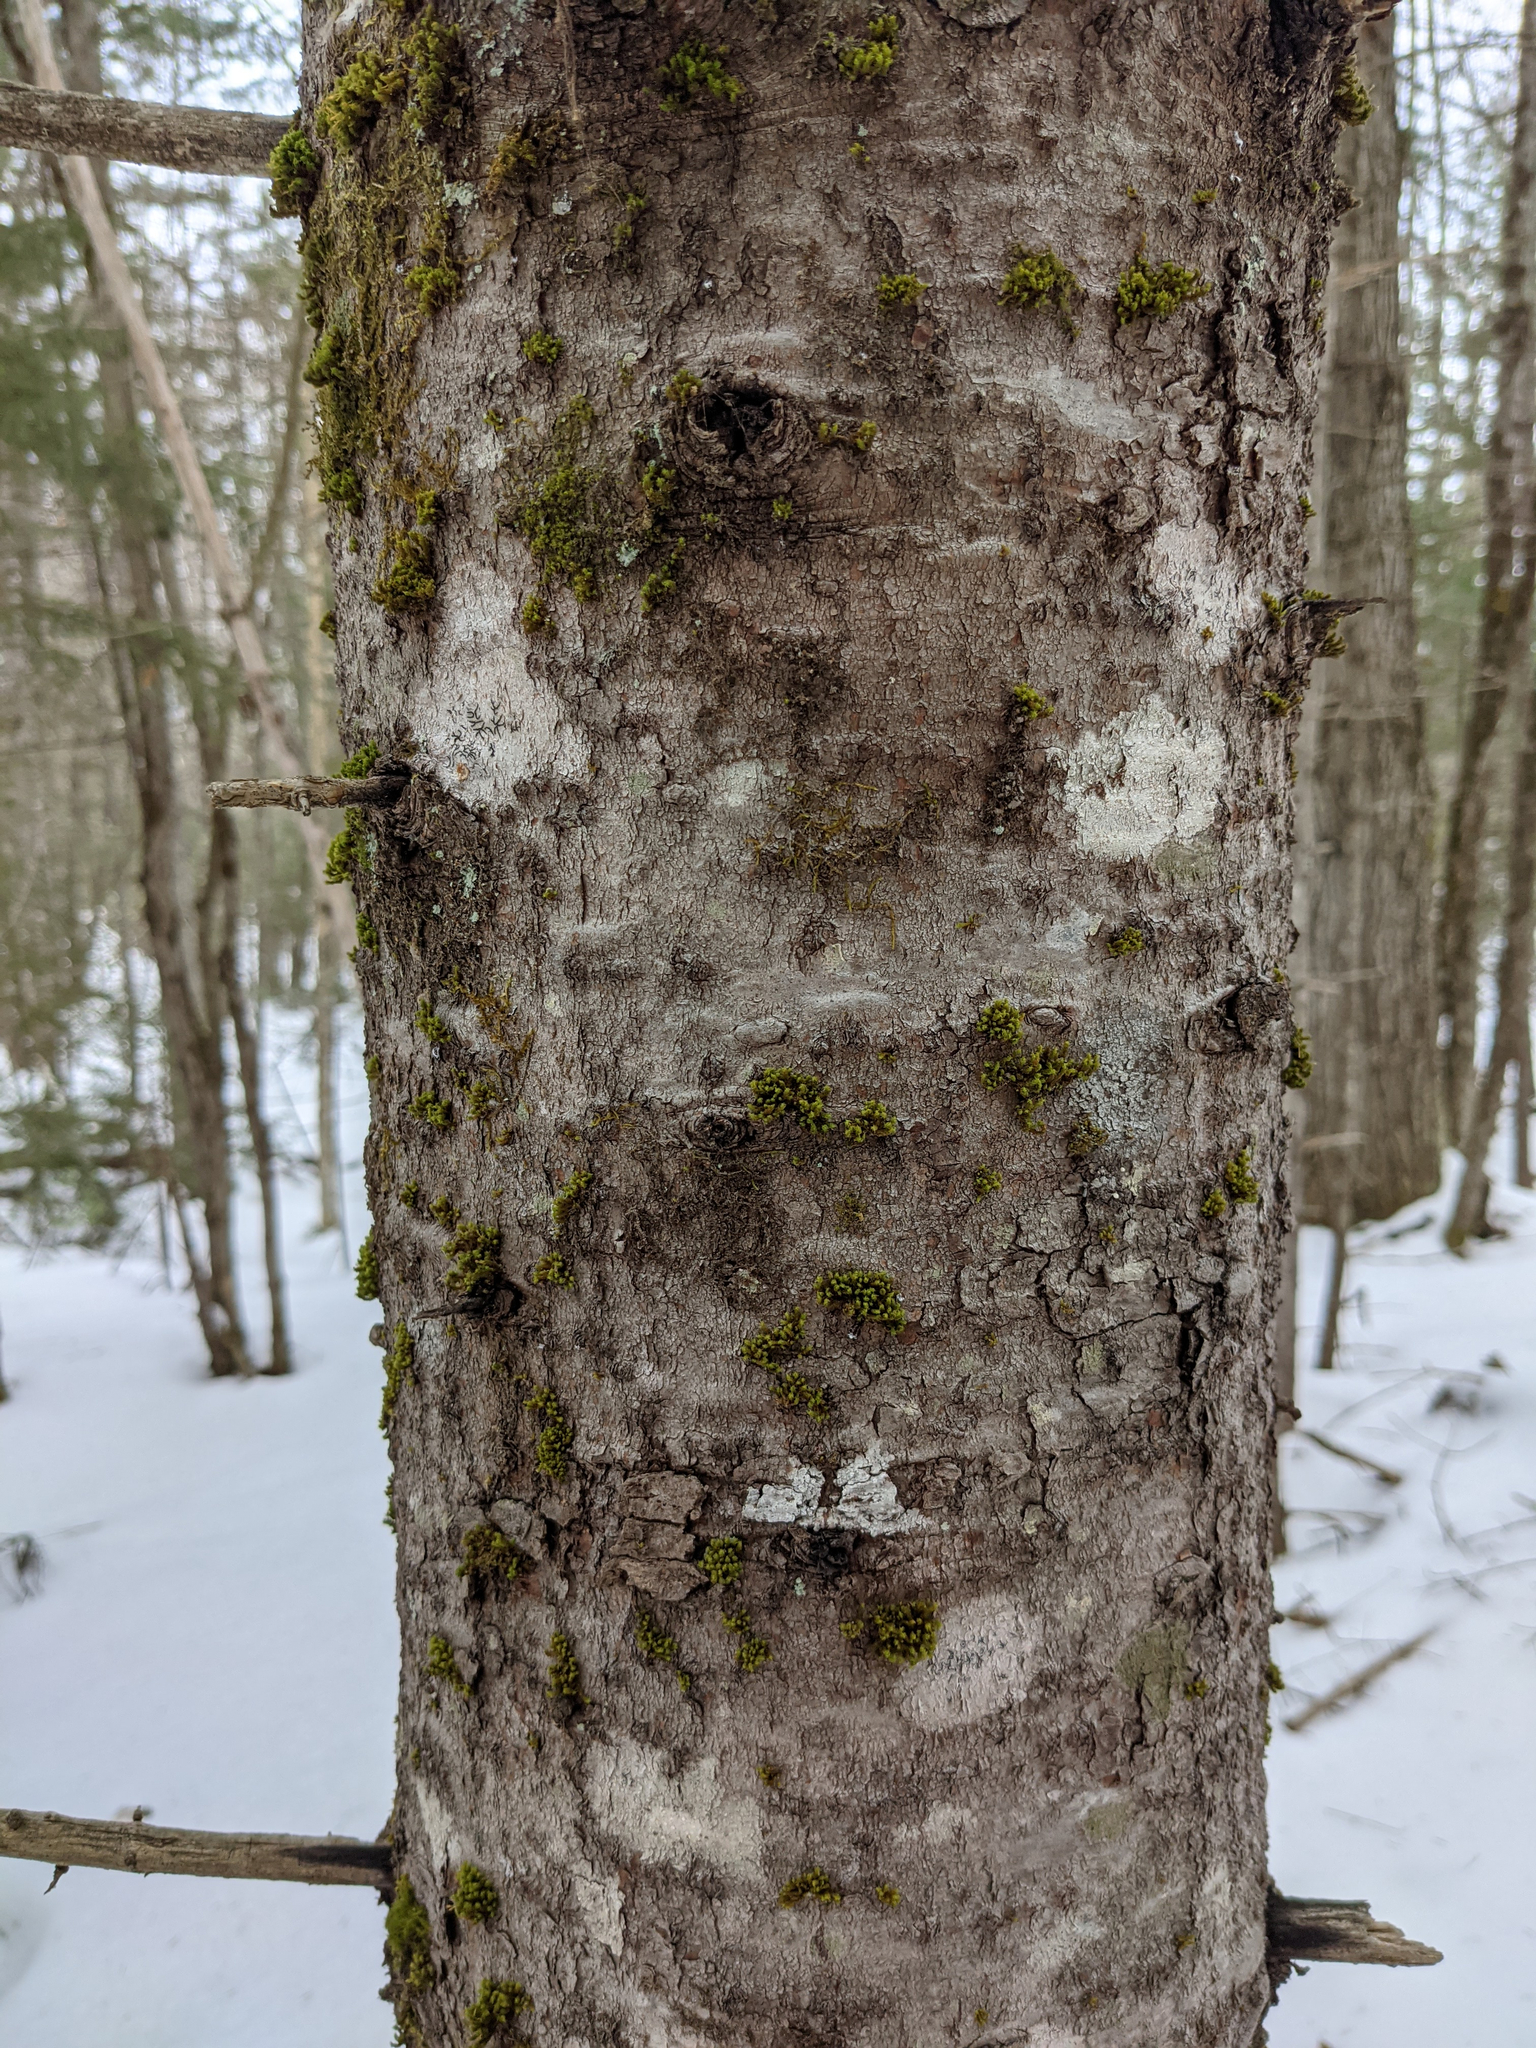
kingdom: Plantae
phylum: Bryophyta
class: Bryopsida
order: Orthotrichales
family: Orthotrichaceae
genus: Ulota
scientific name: Ulota crispa
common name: Crisped pincushion moss
